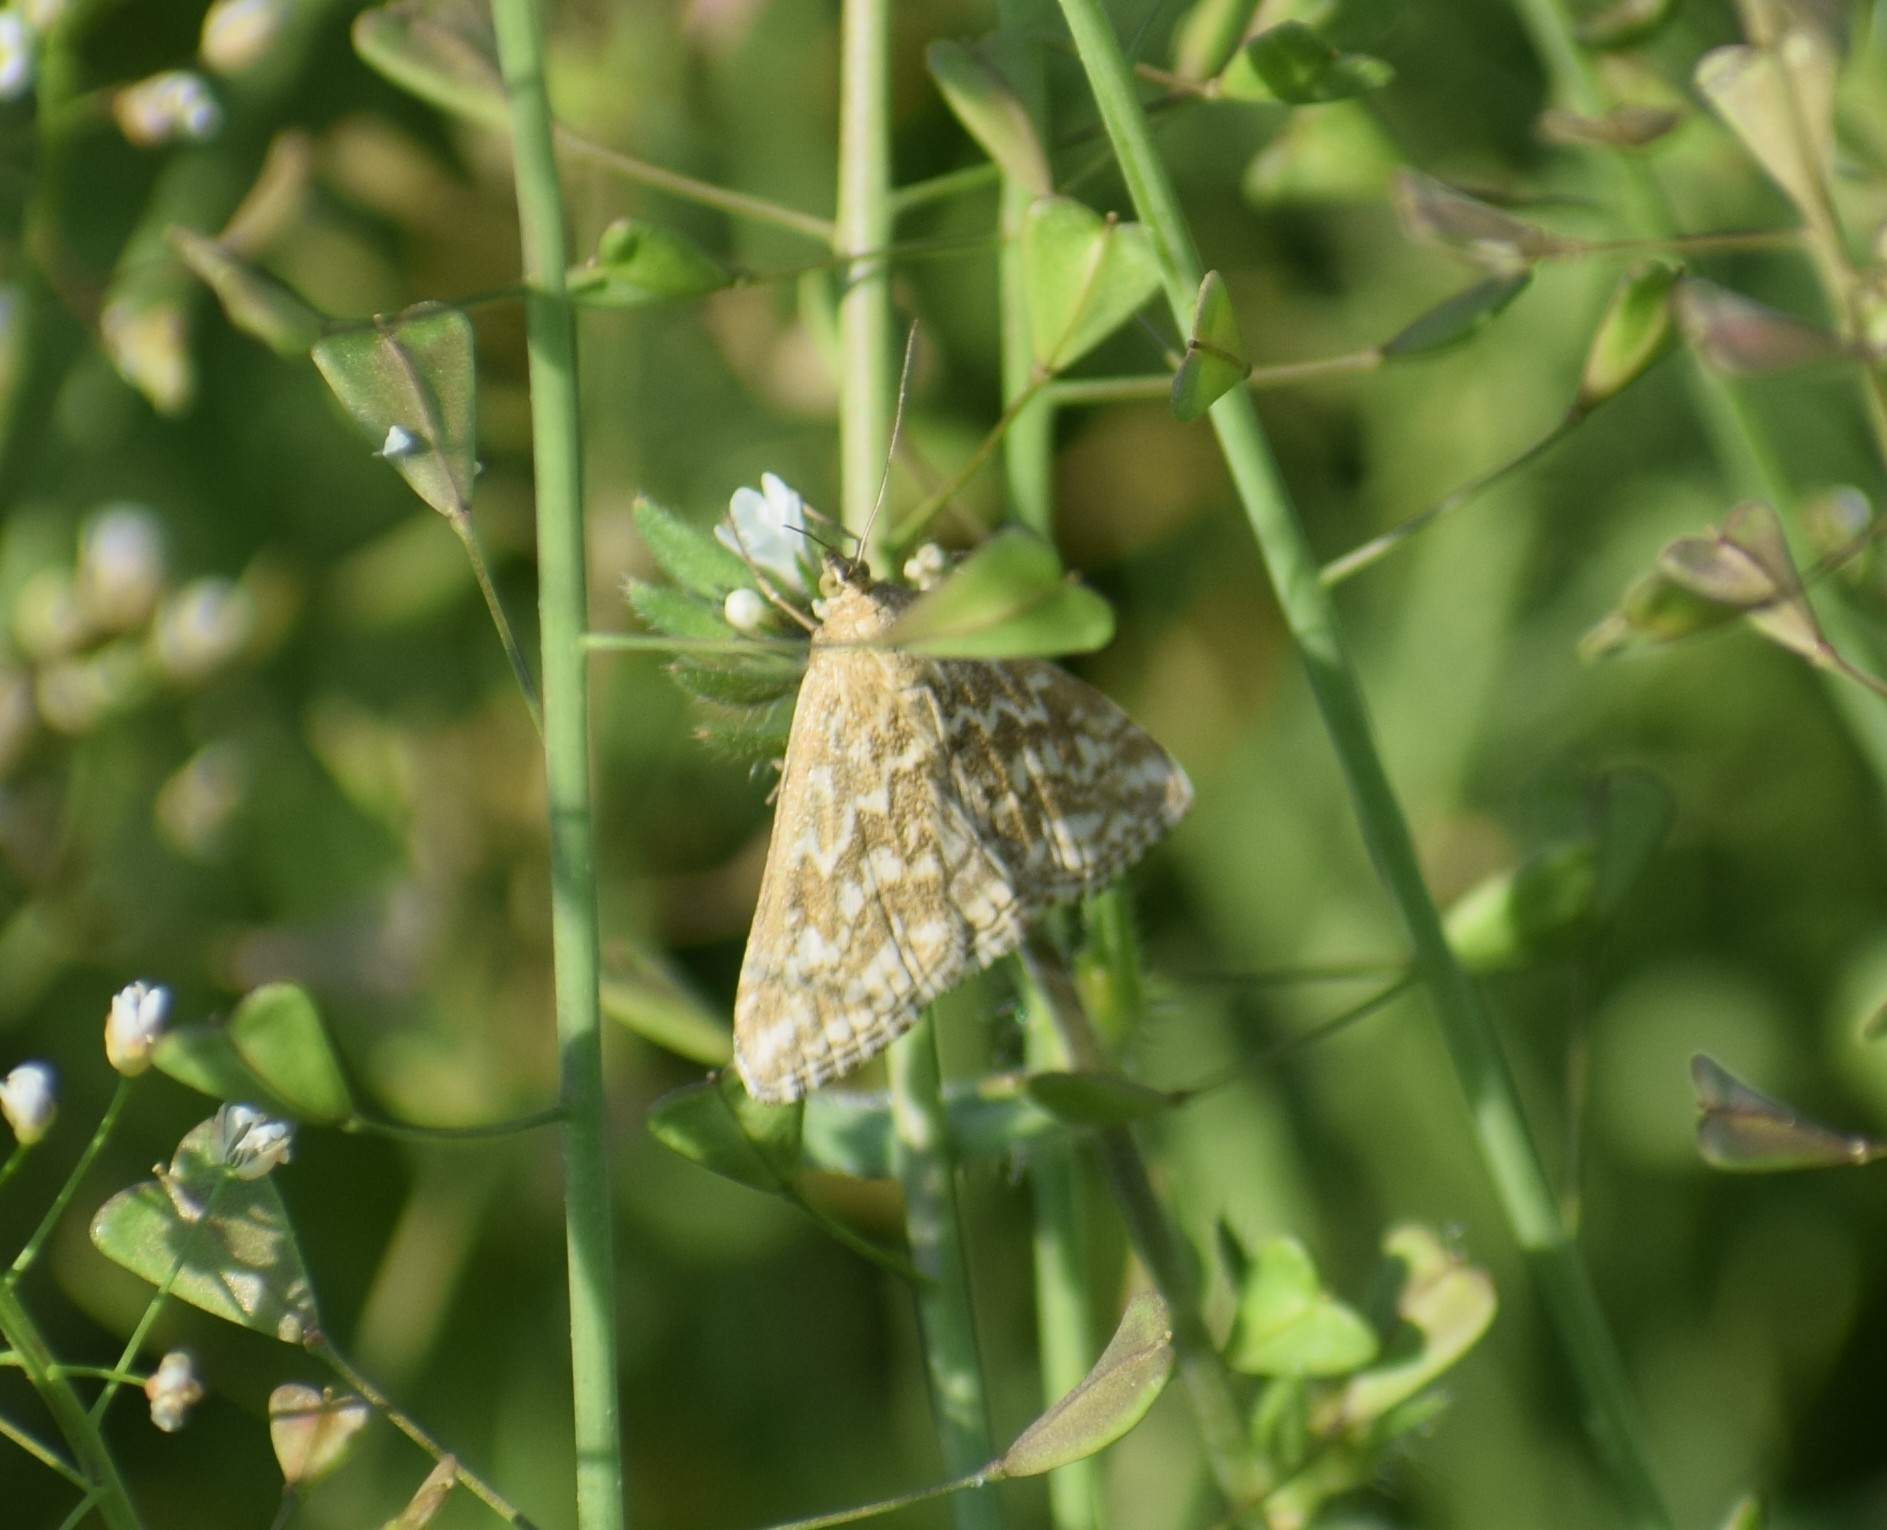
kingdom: Animalia
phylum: Arthropoda
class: Insecta
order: Lepidoptera
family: Crambidae
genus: Evergestis
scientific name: Evergestis frumentalis
